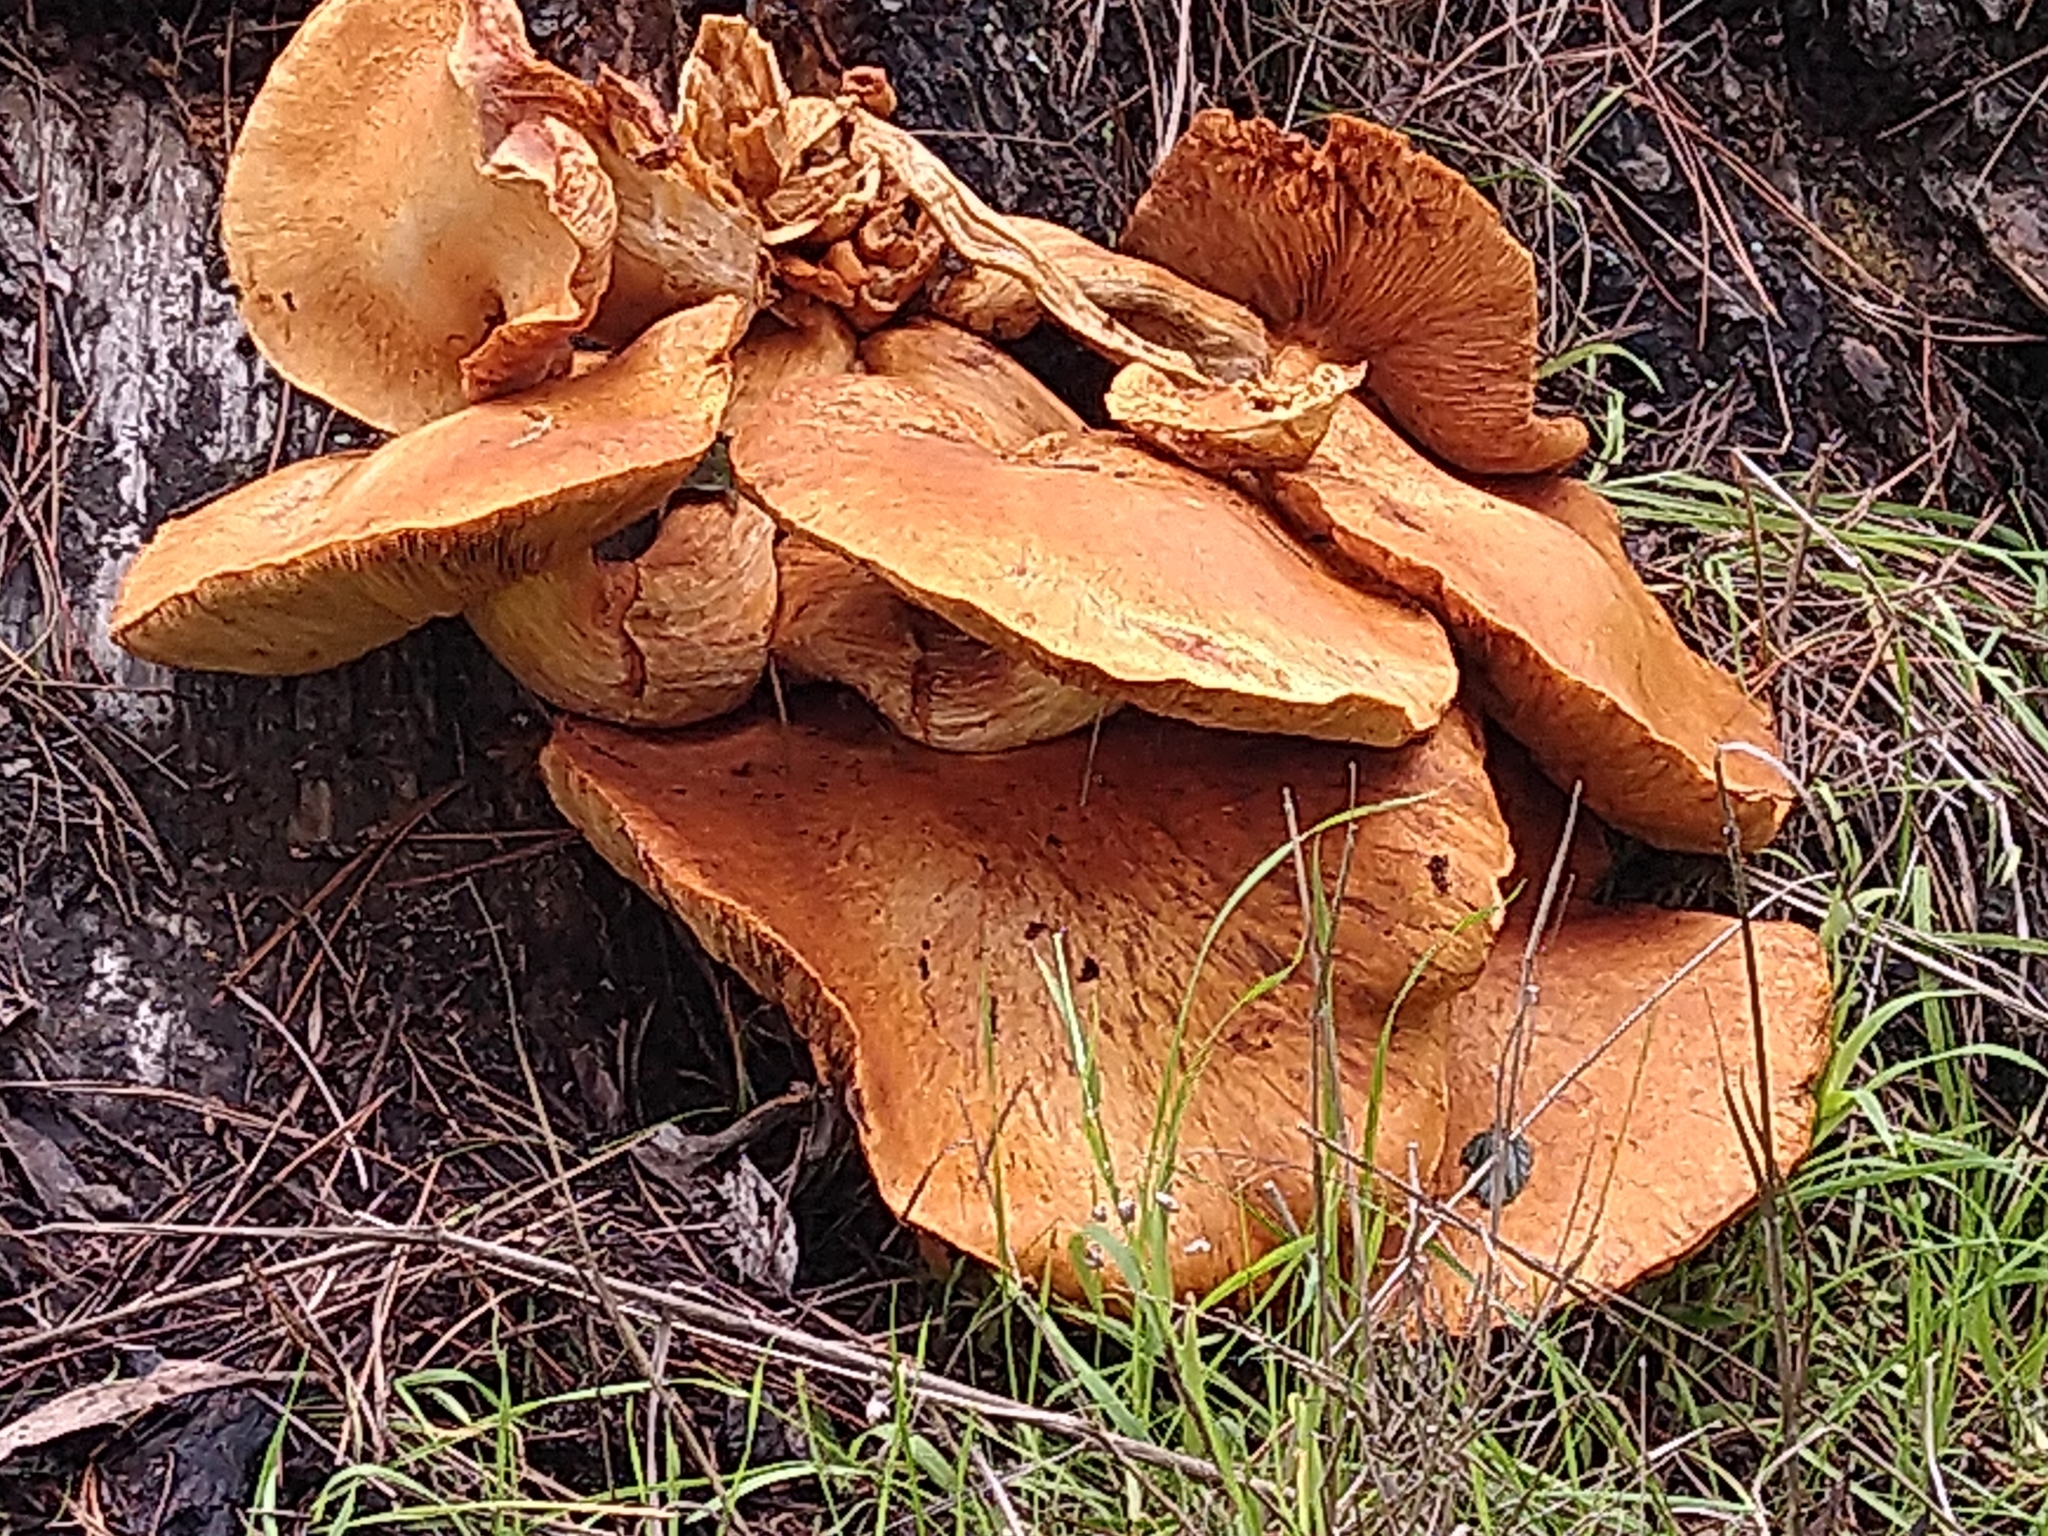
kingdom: Fungi
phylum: Basidiomycota
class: Agaricomycetes
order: Agaricales
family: Hymenogastraceae
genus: Gymnopilus
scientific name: Gymnopilus ventricosus
